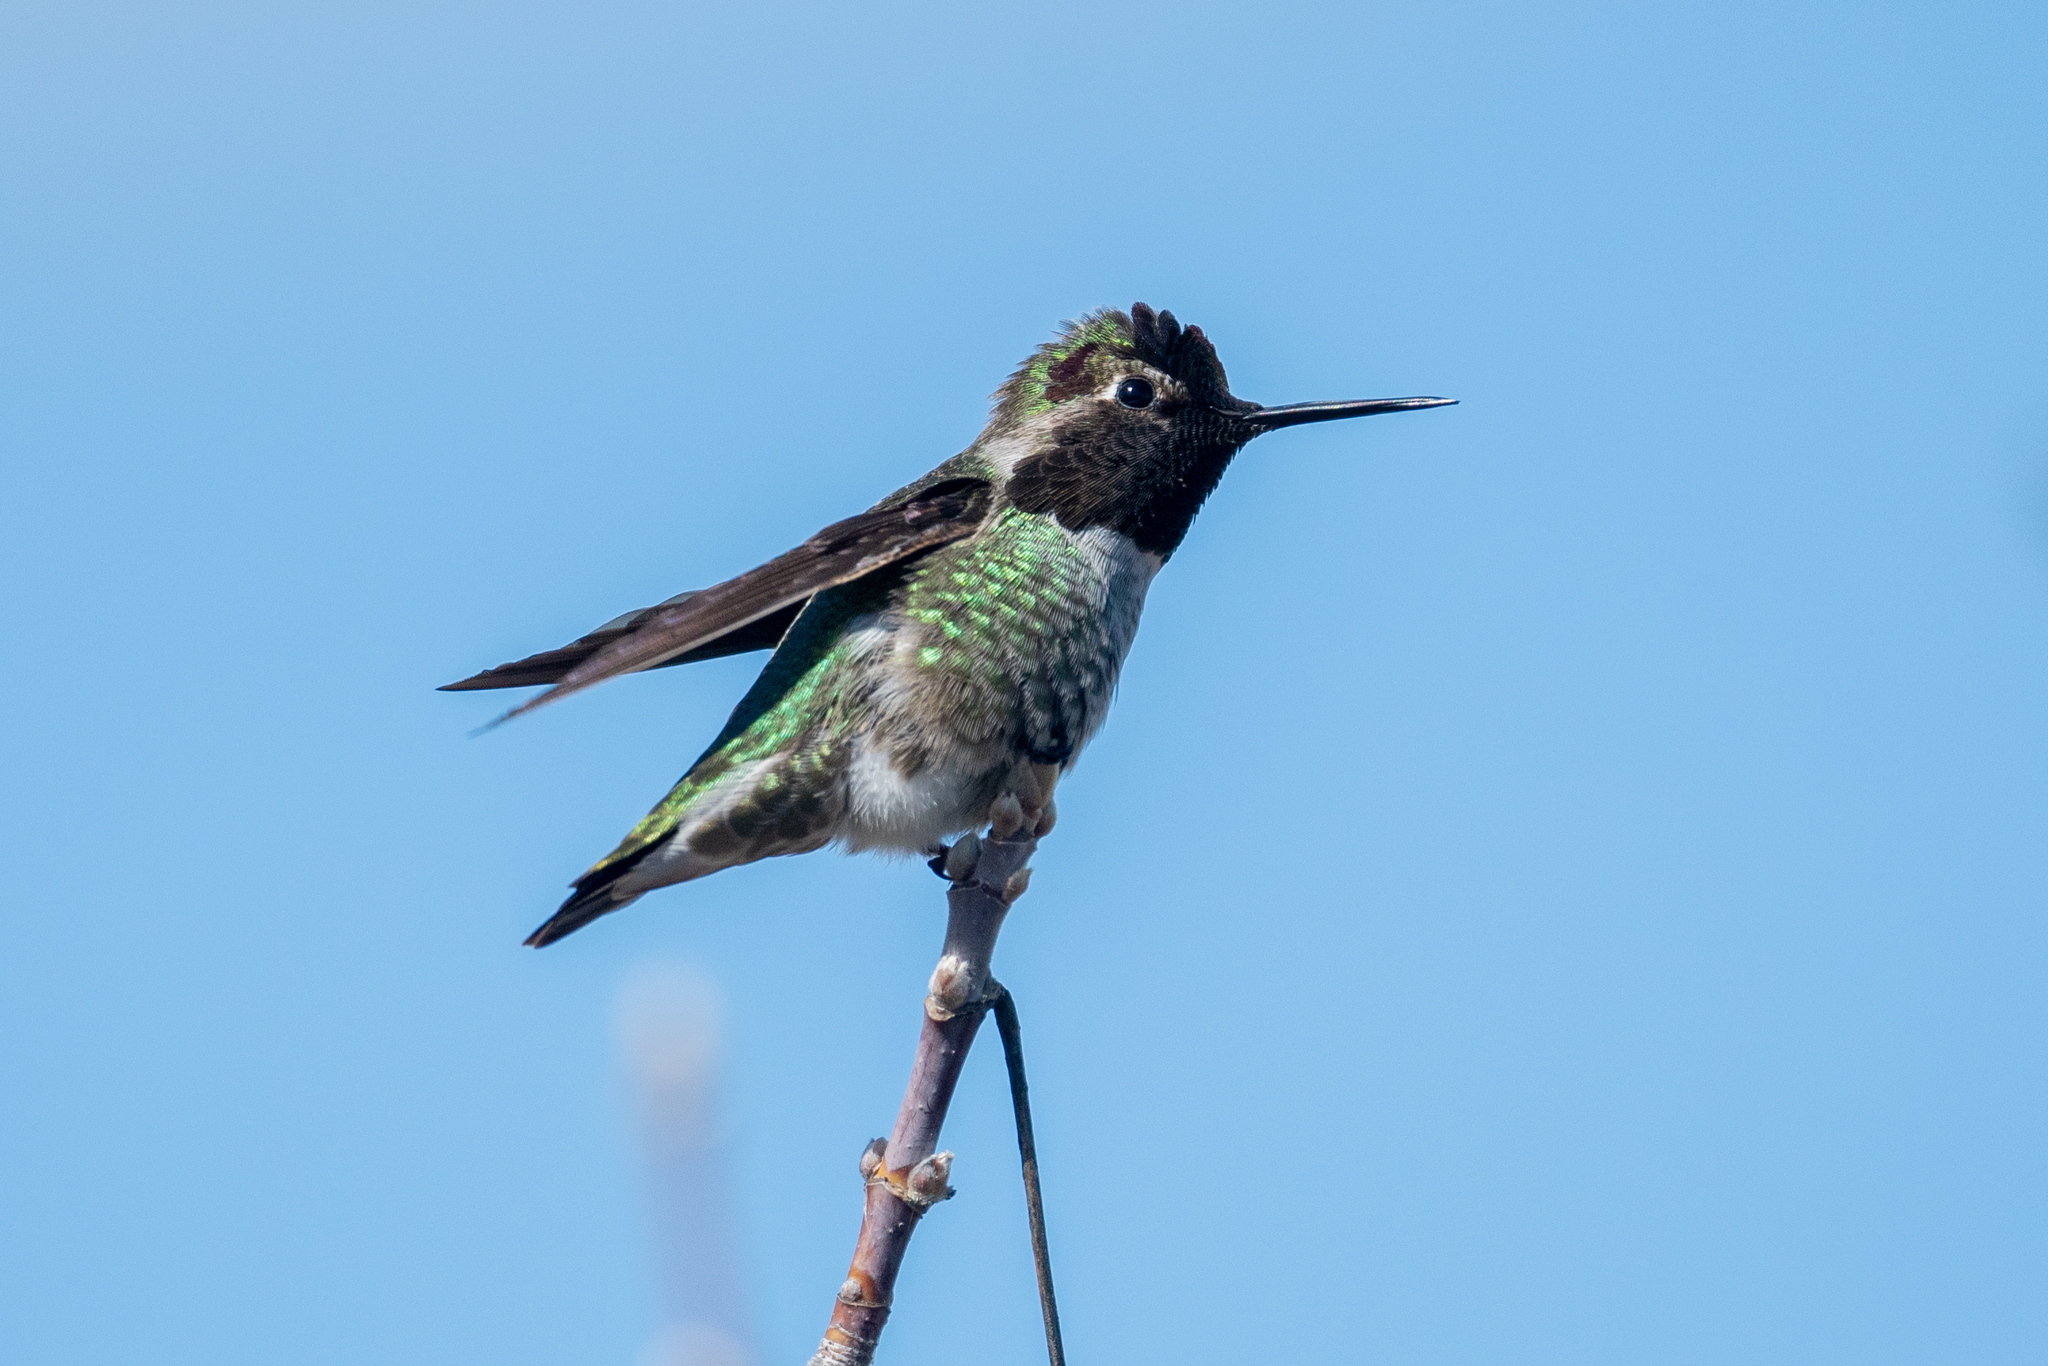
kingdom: Animalia
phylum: Chordata
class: Aves
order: Apodiformes
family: Trochilidae
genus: Calypte
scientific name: Calypte anna
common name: Anna's hummingbird
